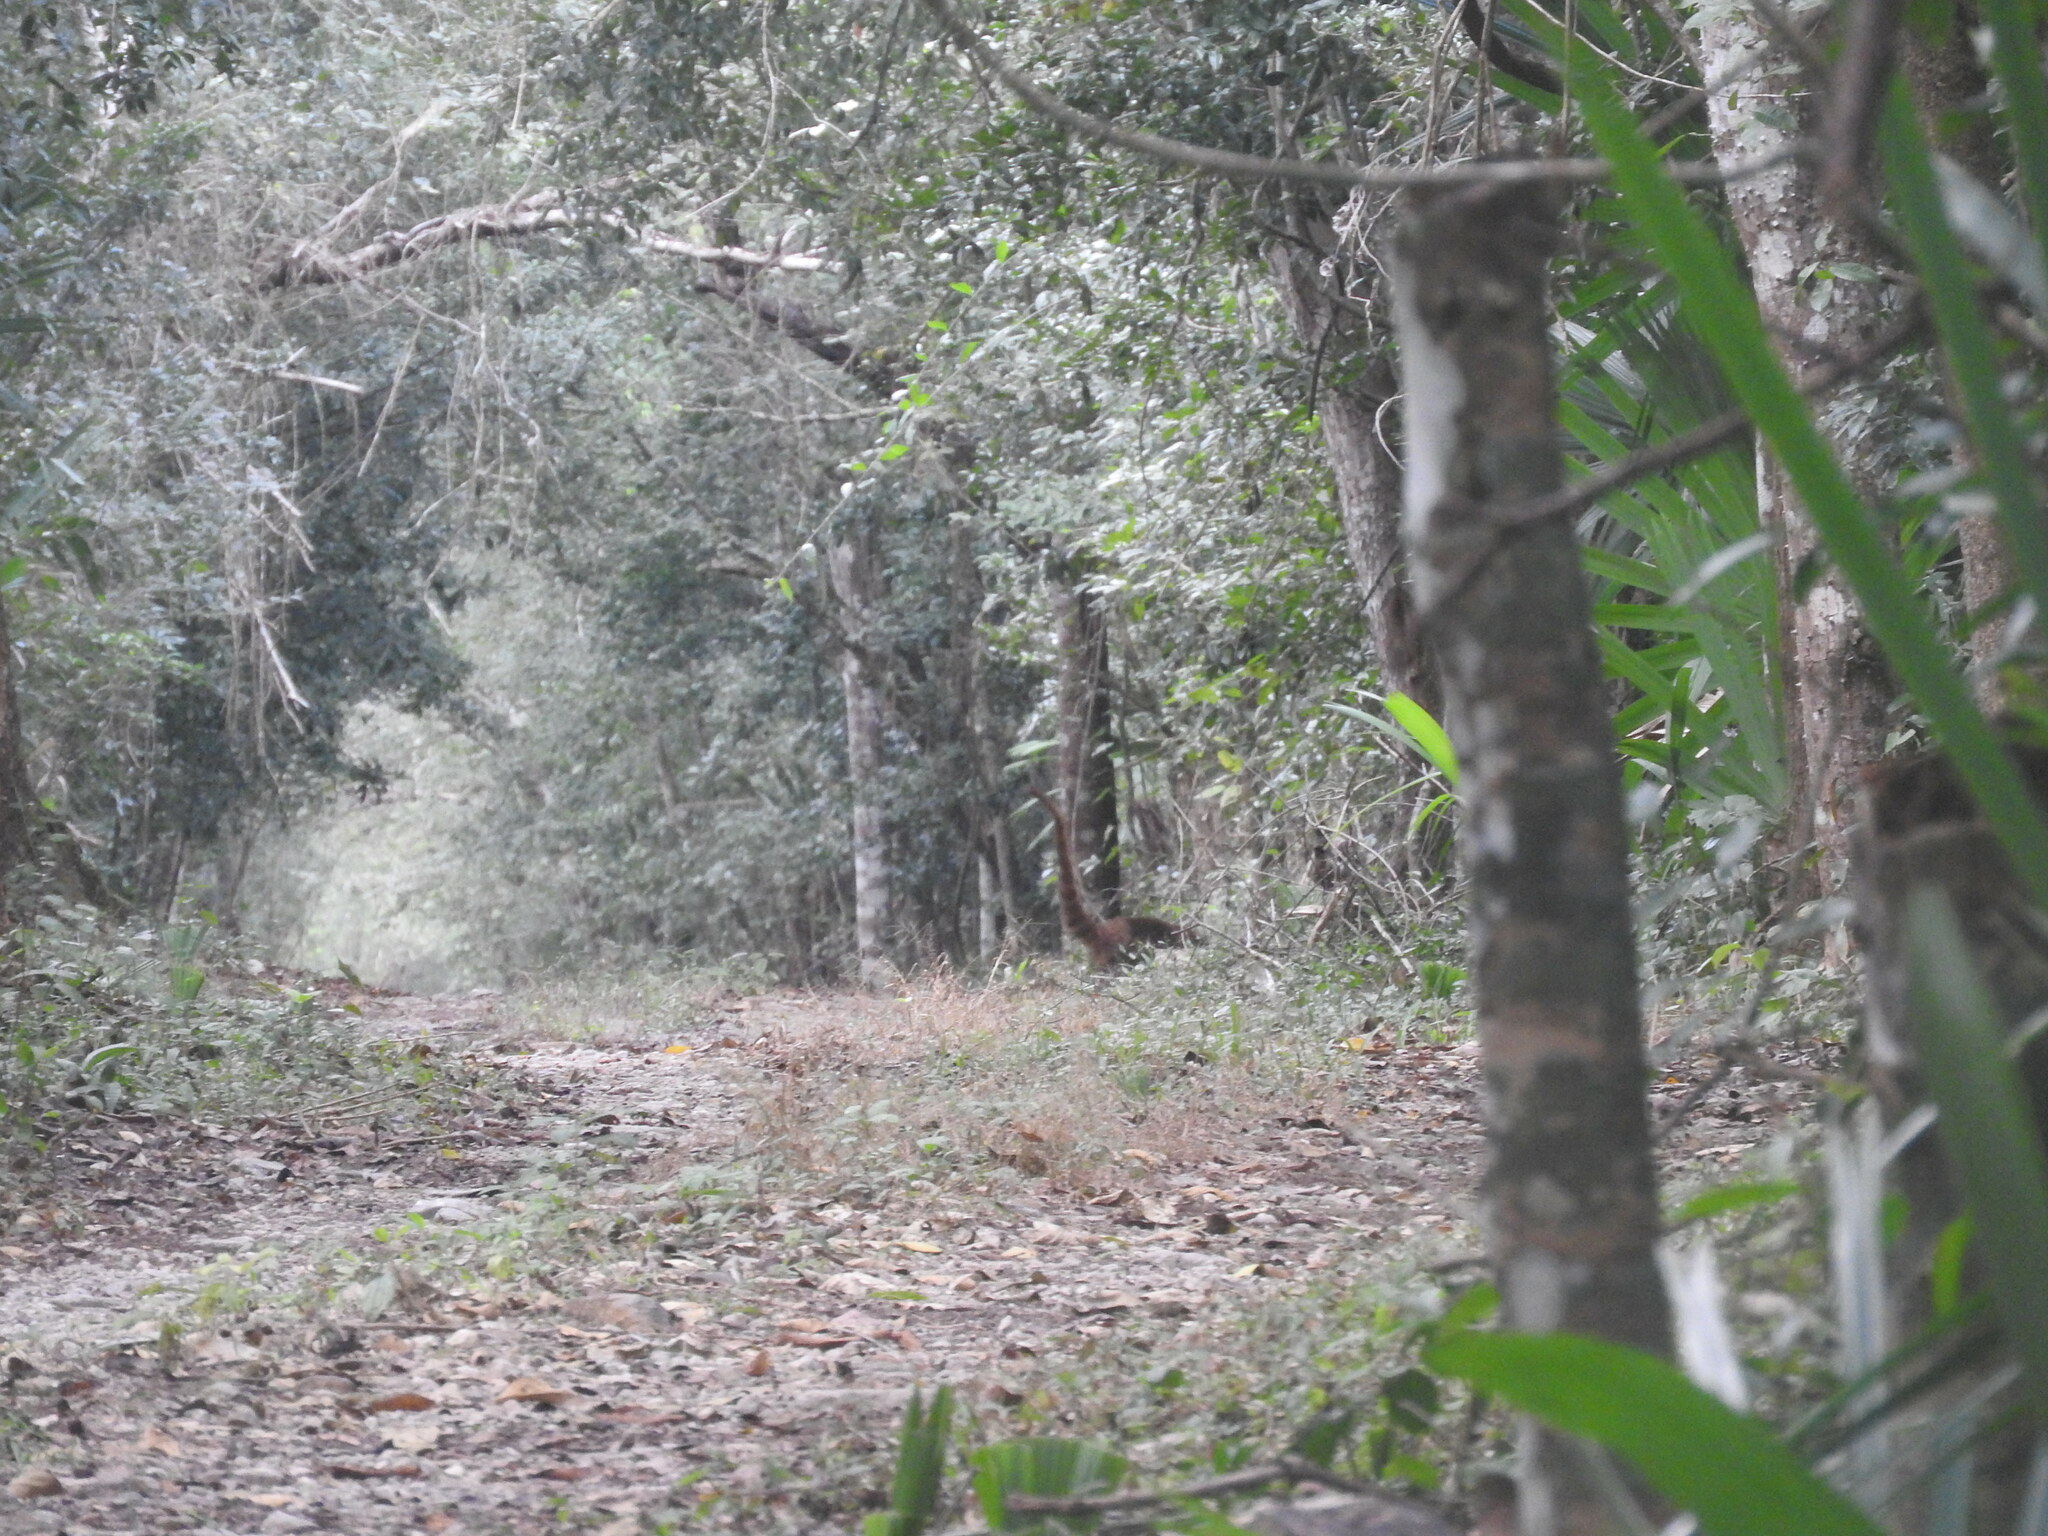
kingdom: Animalia
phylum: Chordata
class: Mammalia
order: Carnivora
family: Procyonidae
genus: Nasua
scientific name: Nasua narica
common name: White-nosed coati
